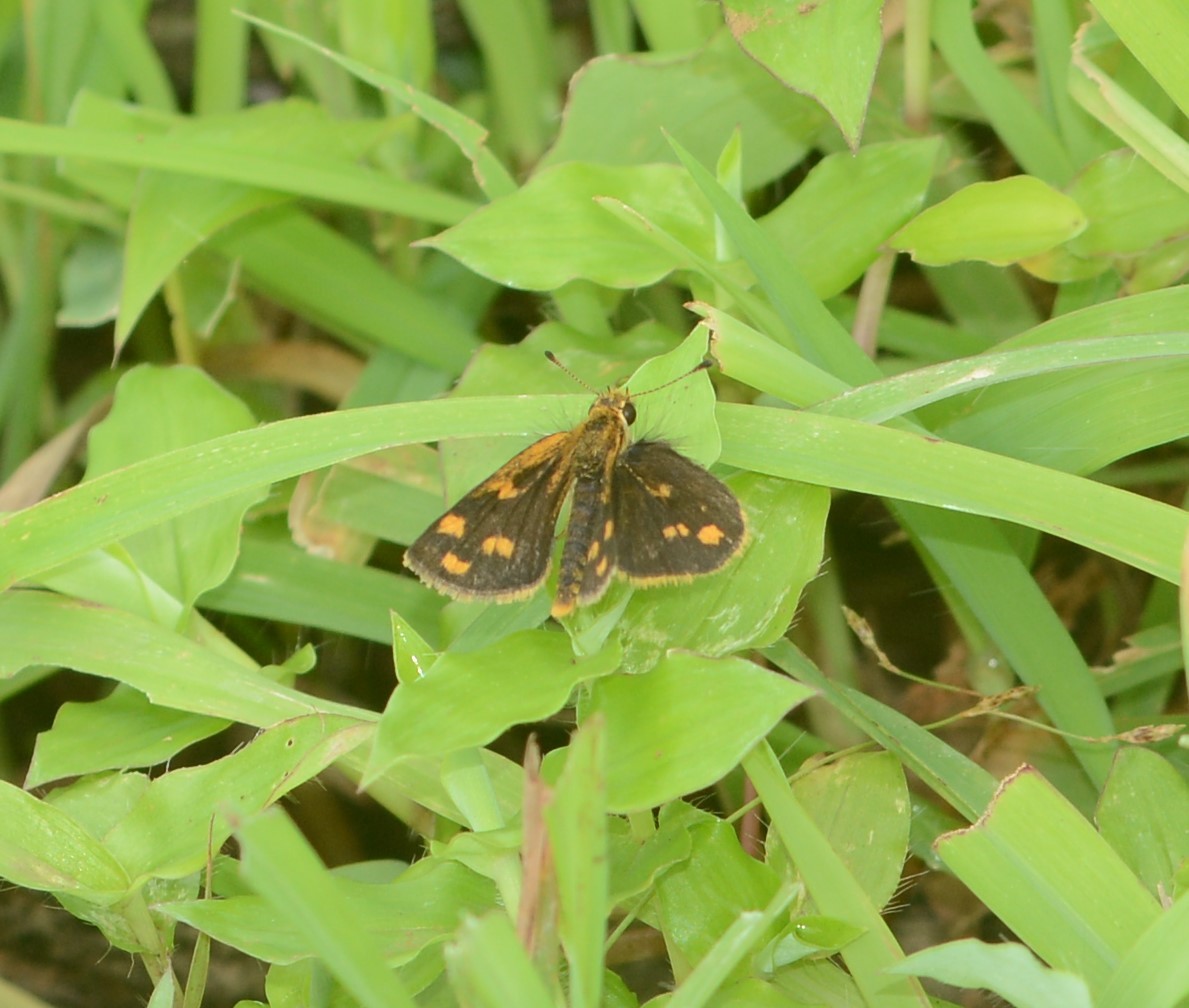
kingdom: Animalia
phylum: Arthropoda
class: Insecta
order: Lepidoptera
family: Hesperiidae
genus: Taractrocera
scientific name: Taractrocera ceramas
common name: Tamil grass dart
